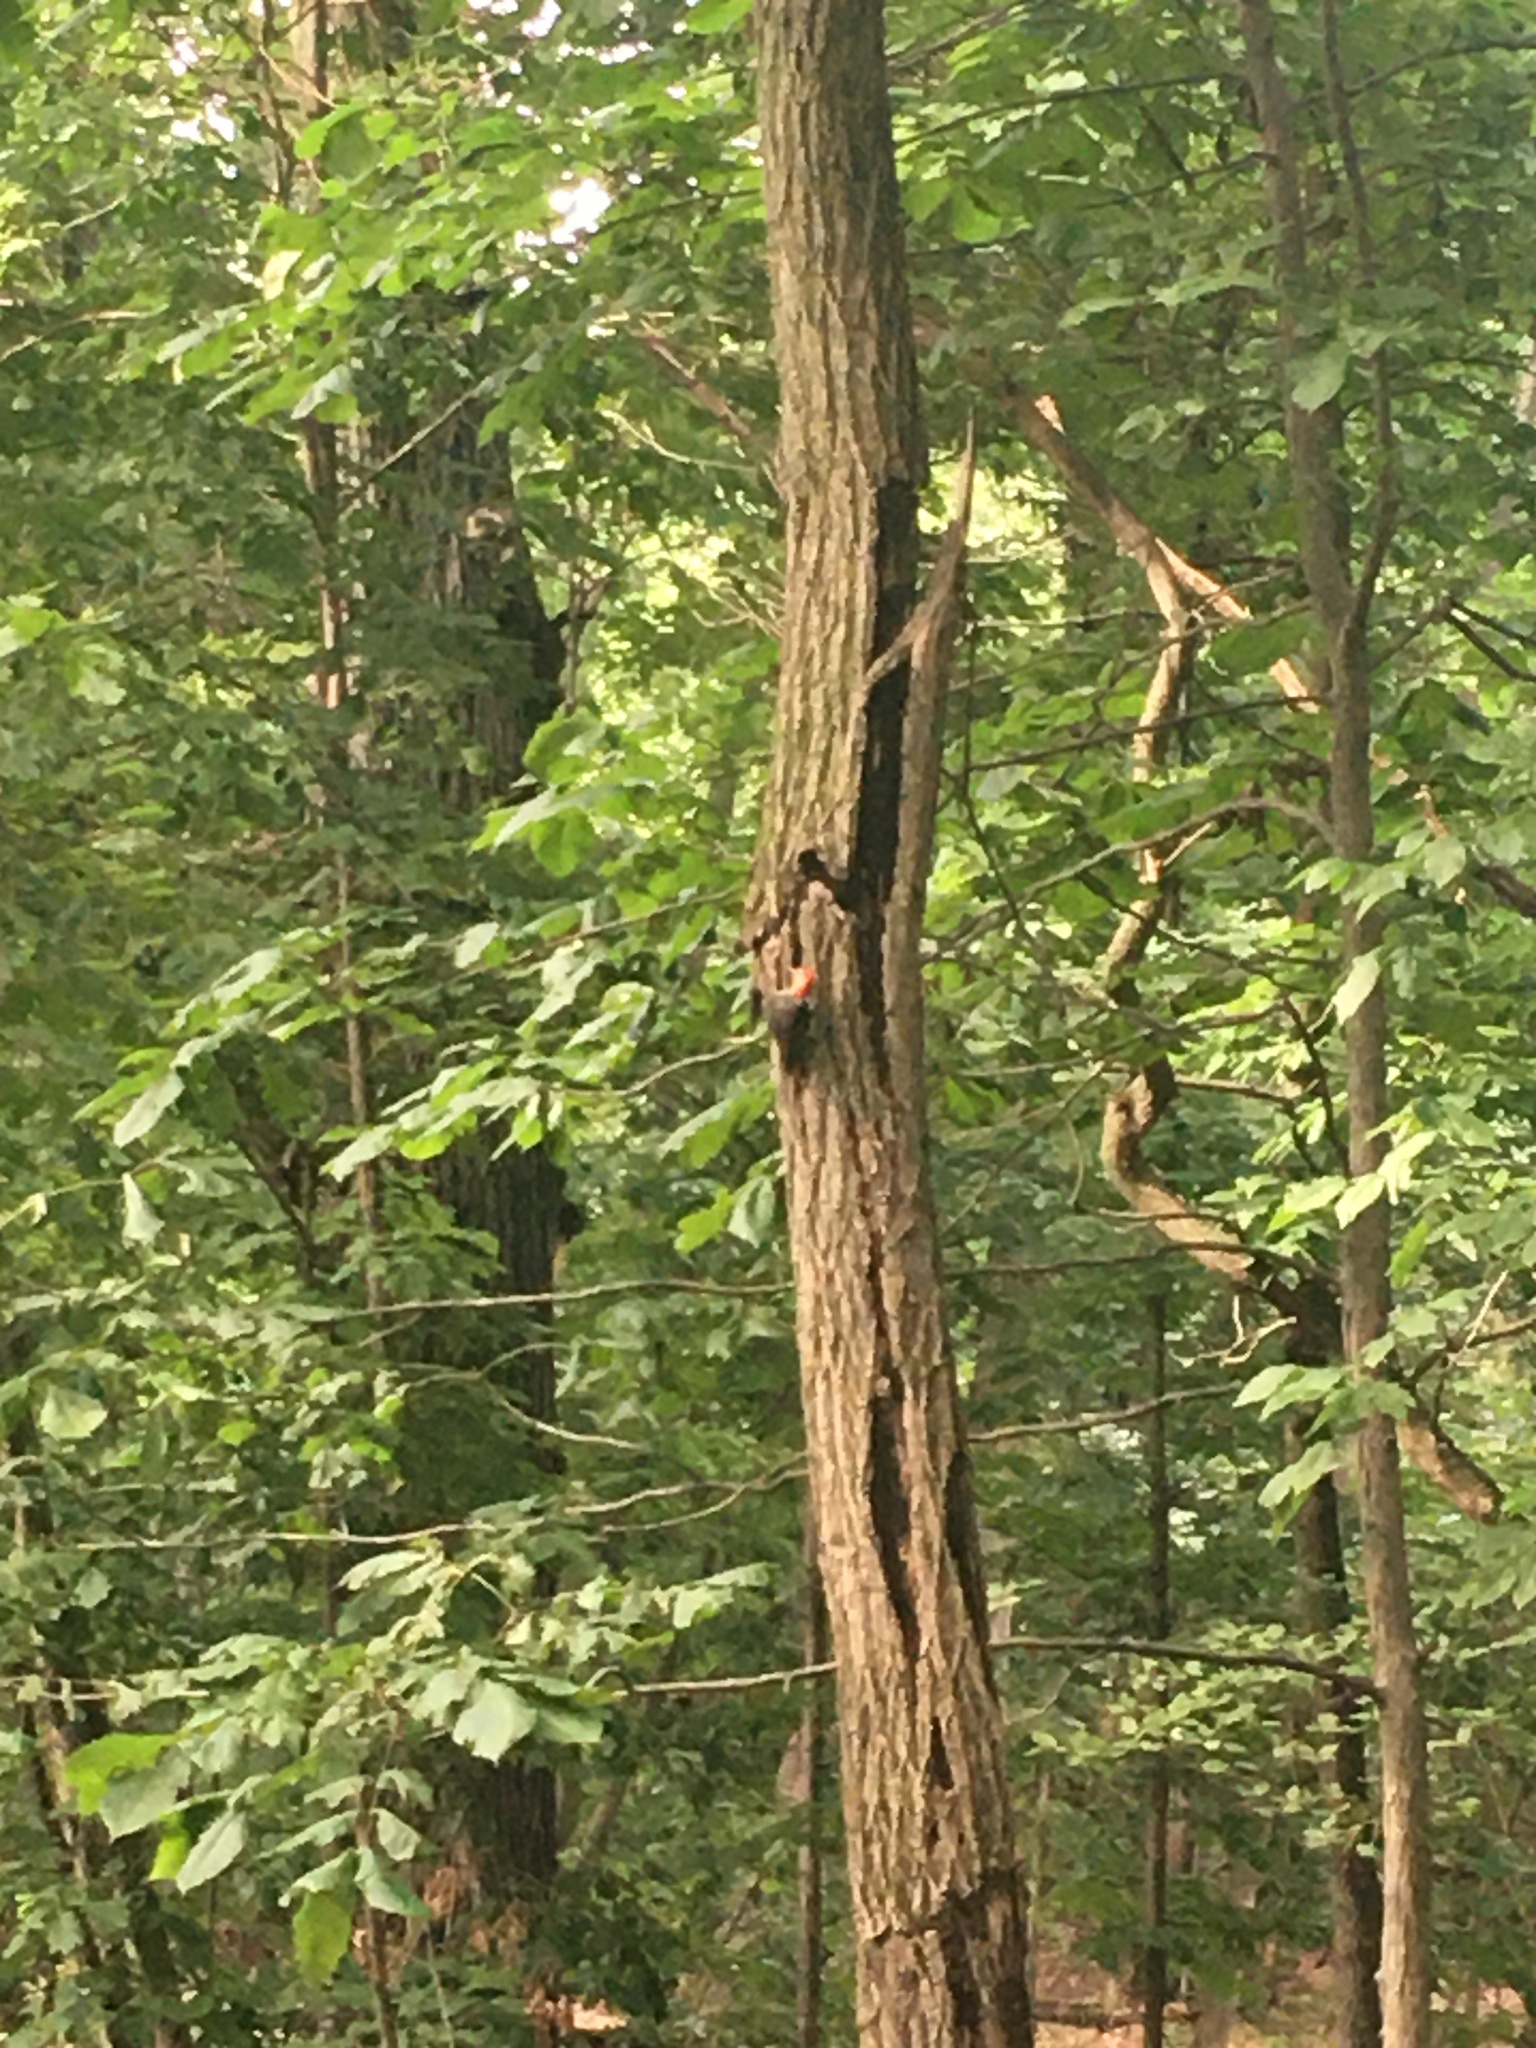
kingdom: Animalia
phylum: Chordata
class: Aves
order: Piciformes
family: Picidae
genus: Melanerpes
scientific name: Melanerpes carolinus
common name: Red-bellied woodpecker
